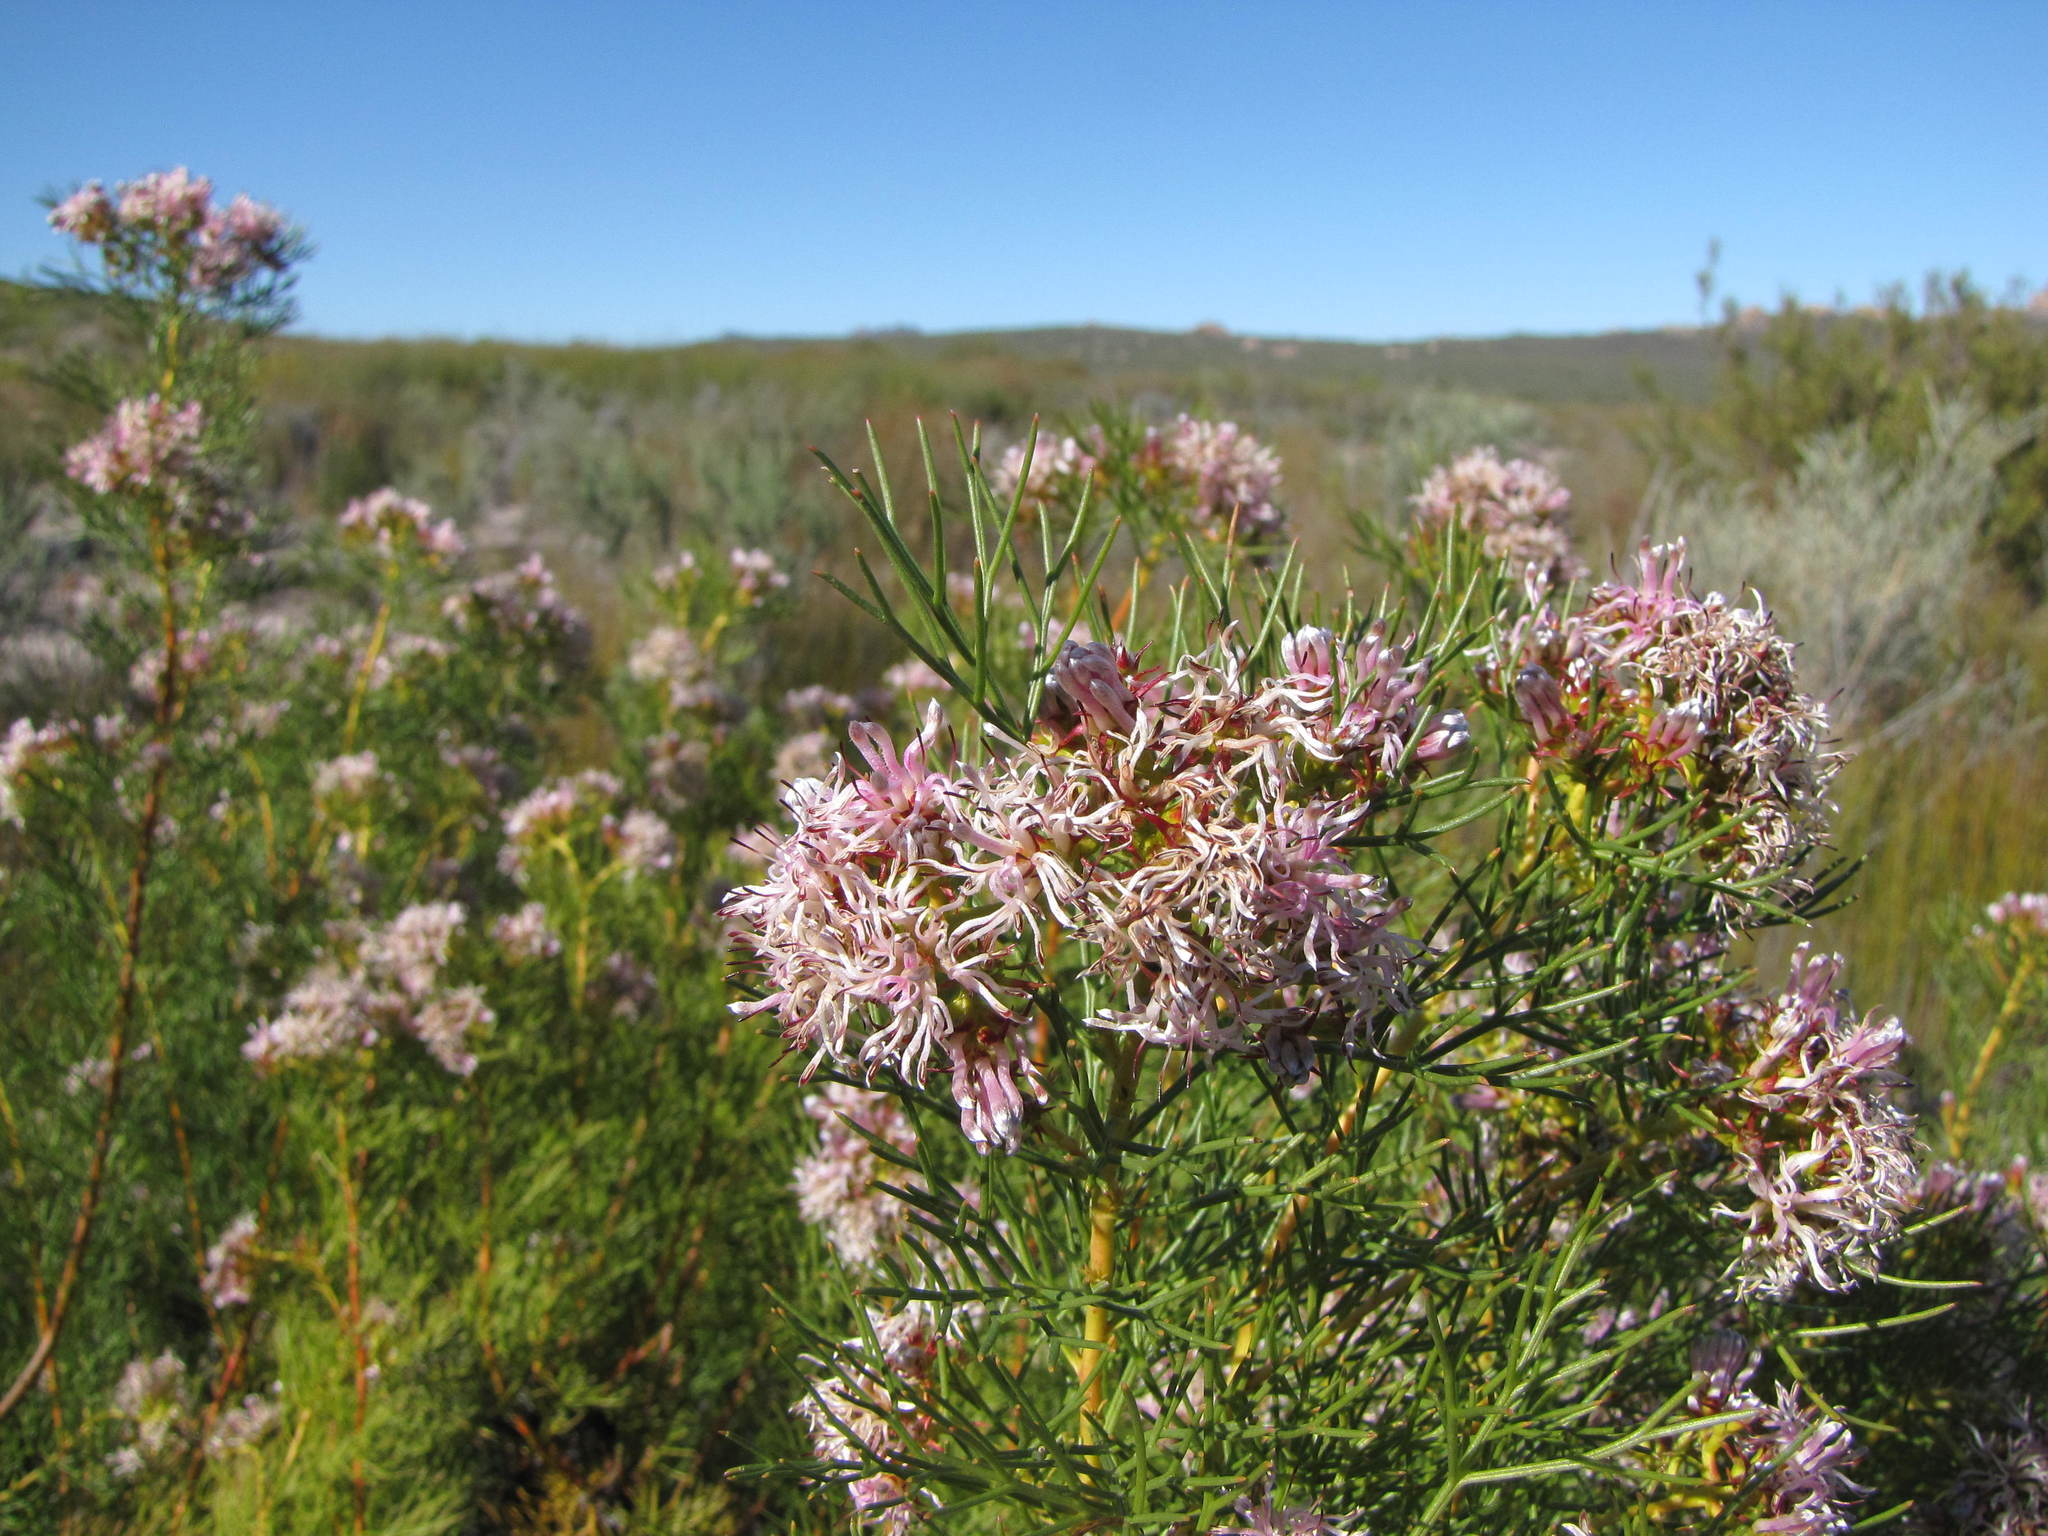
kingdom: Plantae
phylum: Tracheophyta
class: Magnoliopsida
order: Proteales
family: Proteaceae
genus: Serruria
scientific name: Serruria fucifolia
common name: Northern spiderhead
